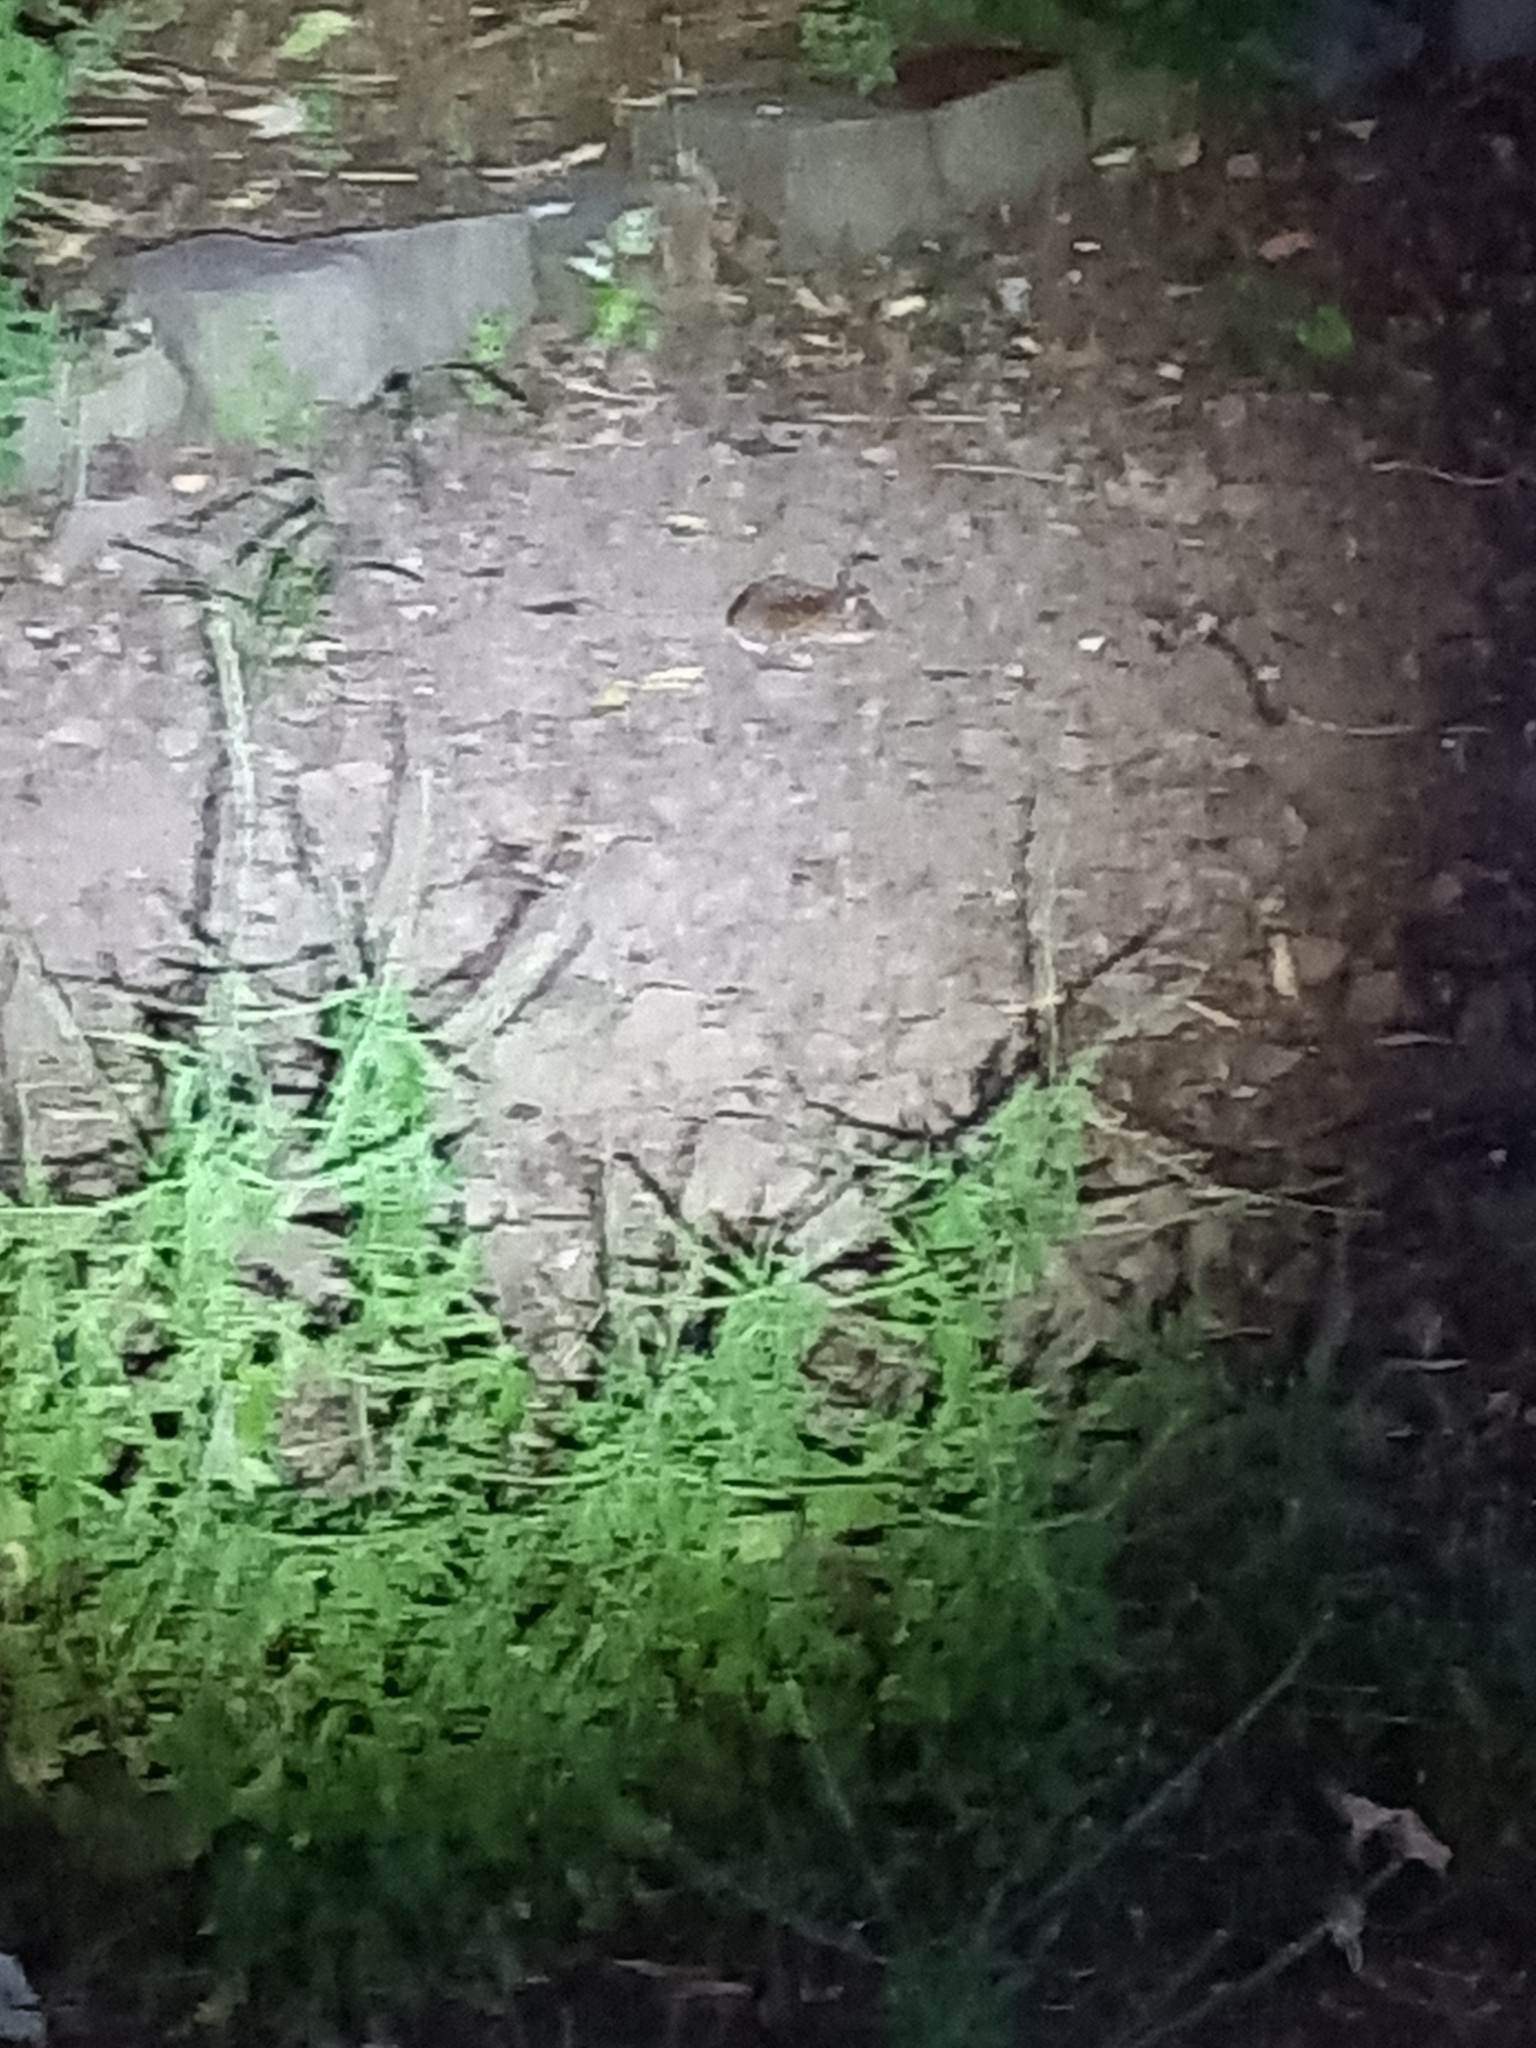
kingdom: Animalia
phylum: Chordata
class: Mammalia
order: Rodentia
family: Muridae
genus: Apodemus
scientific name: Apodemus sylvaticus
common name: Wood mouse
